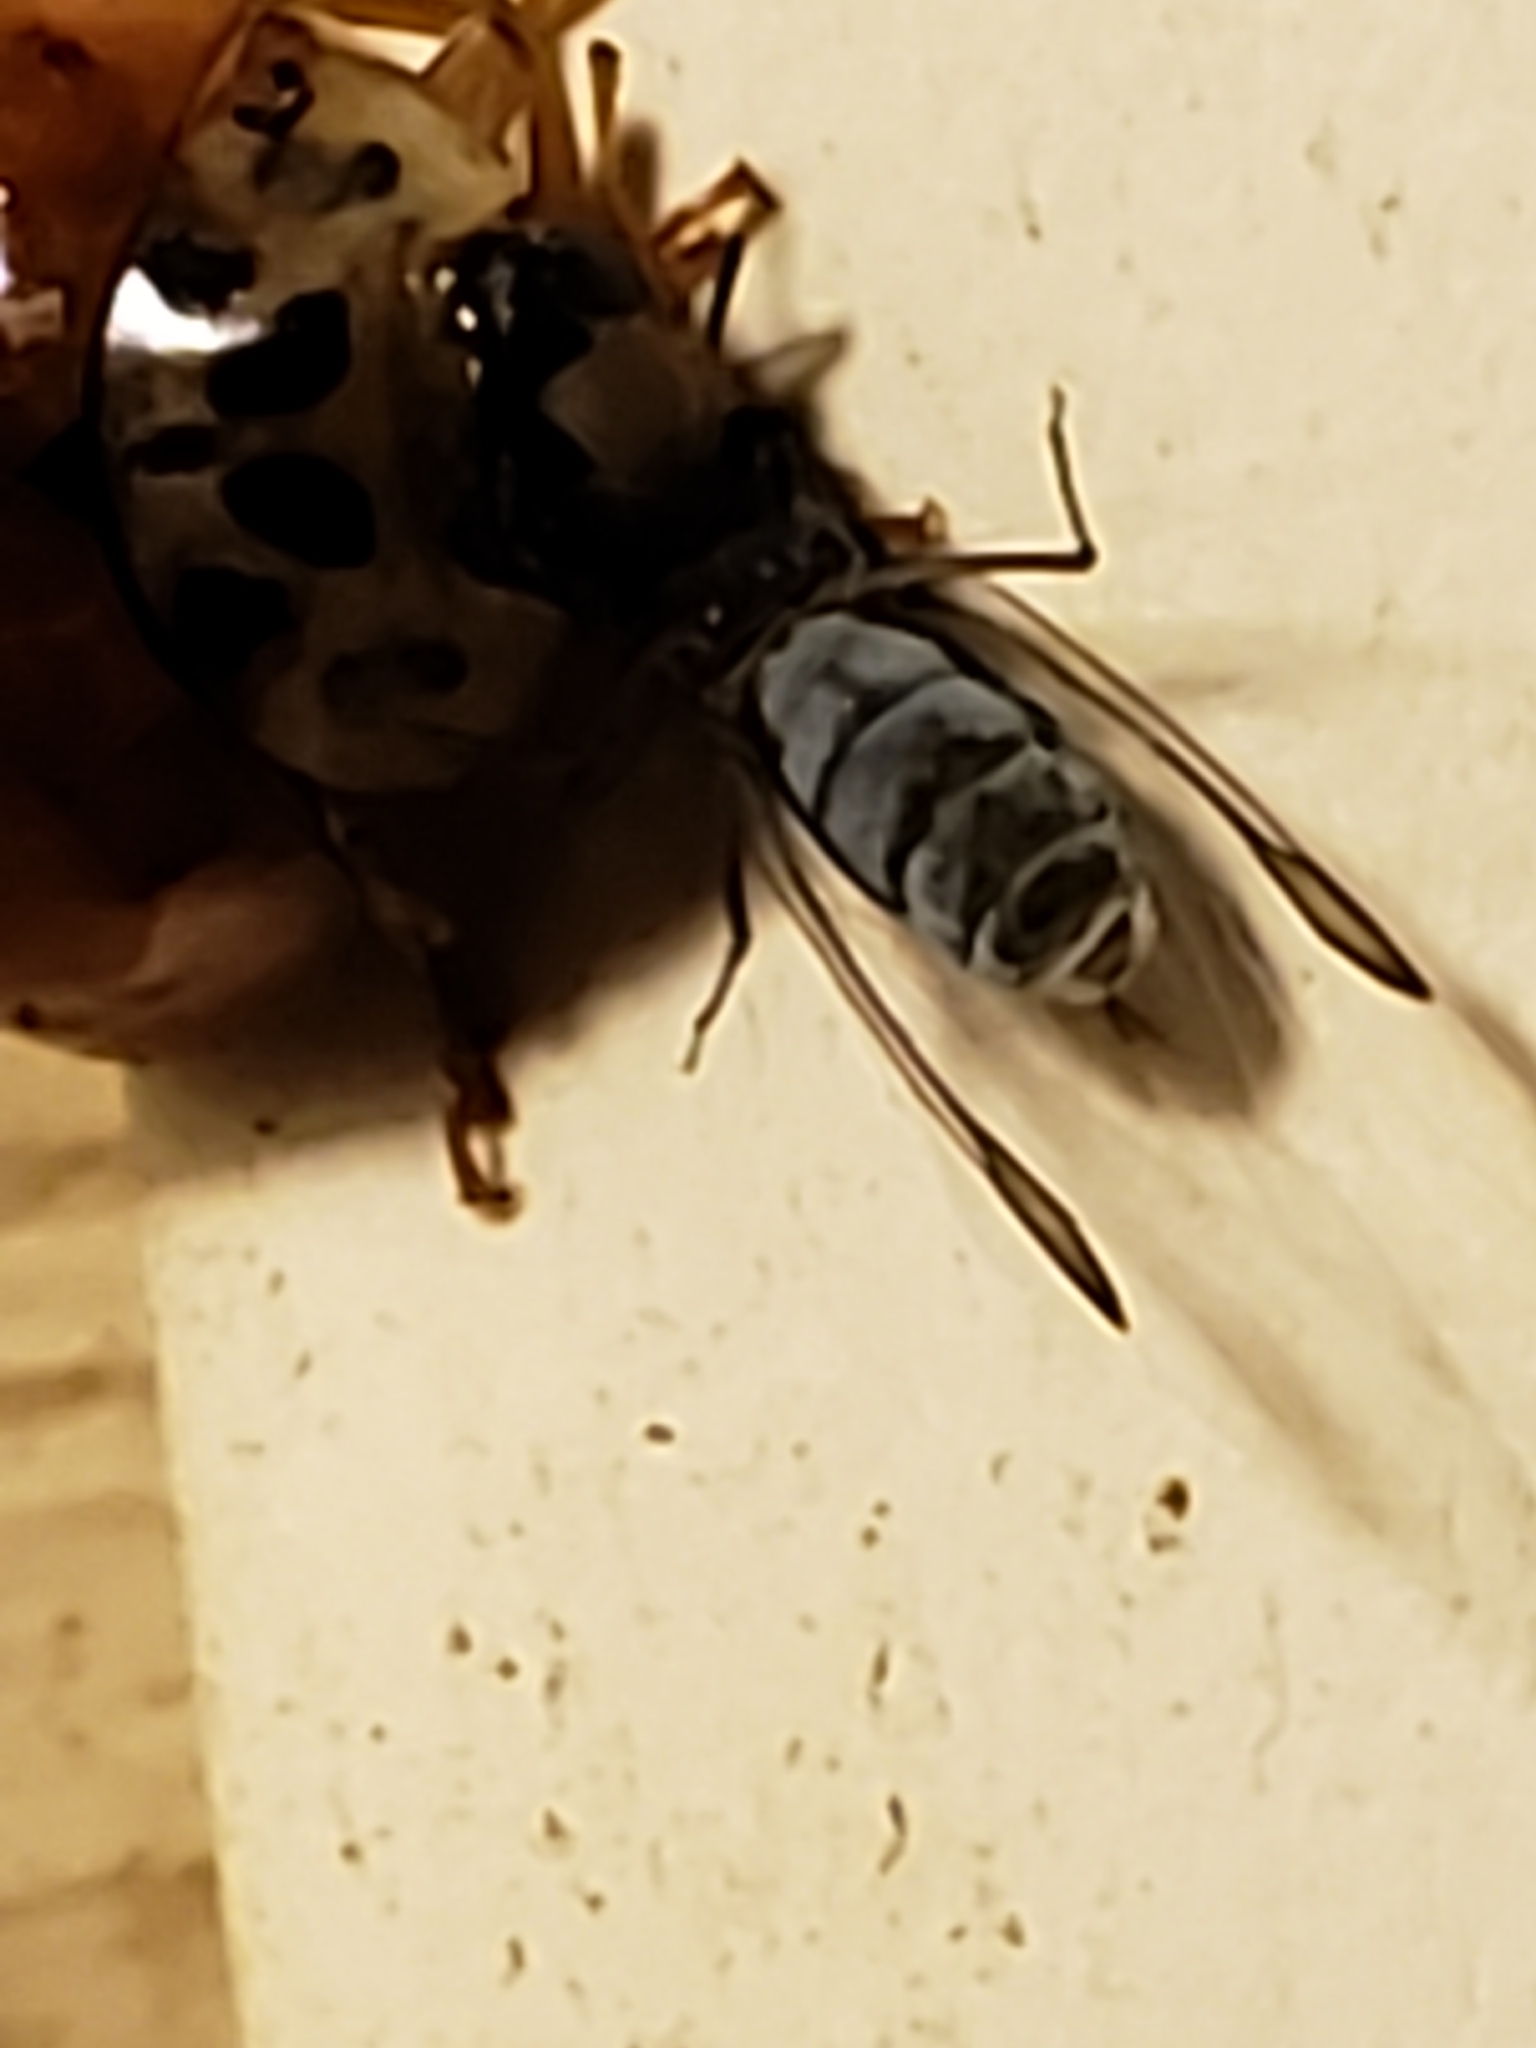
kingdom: Animalia
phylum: Arthropoda
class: Insecta
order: Coleoptera
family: Coccinellidae
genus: Harmonia
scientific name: Harmonia axyridis
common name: Harlequin ladybird
